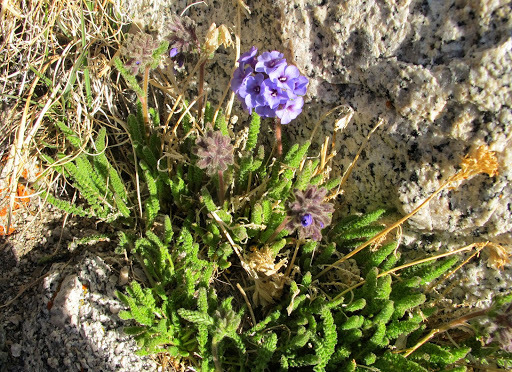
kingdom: Plantae
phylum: Tracheophyta
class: Magnoliopsida
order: Ericales
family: Polemoniaceae
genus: Polemonium
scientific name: Polemonium eximium
